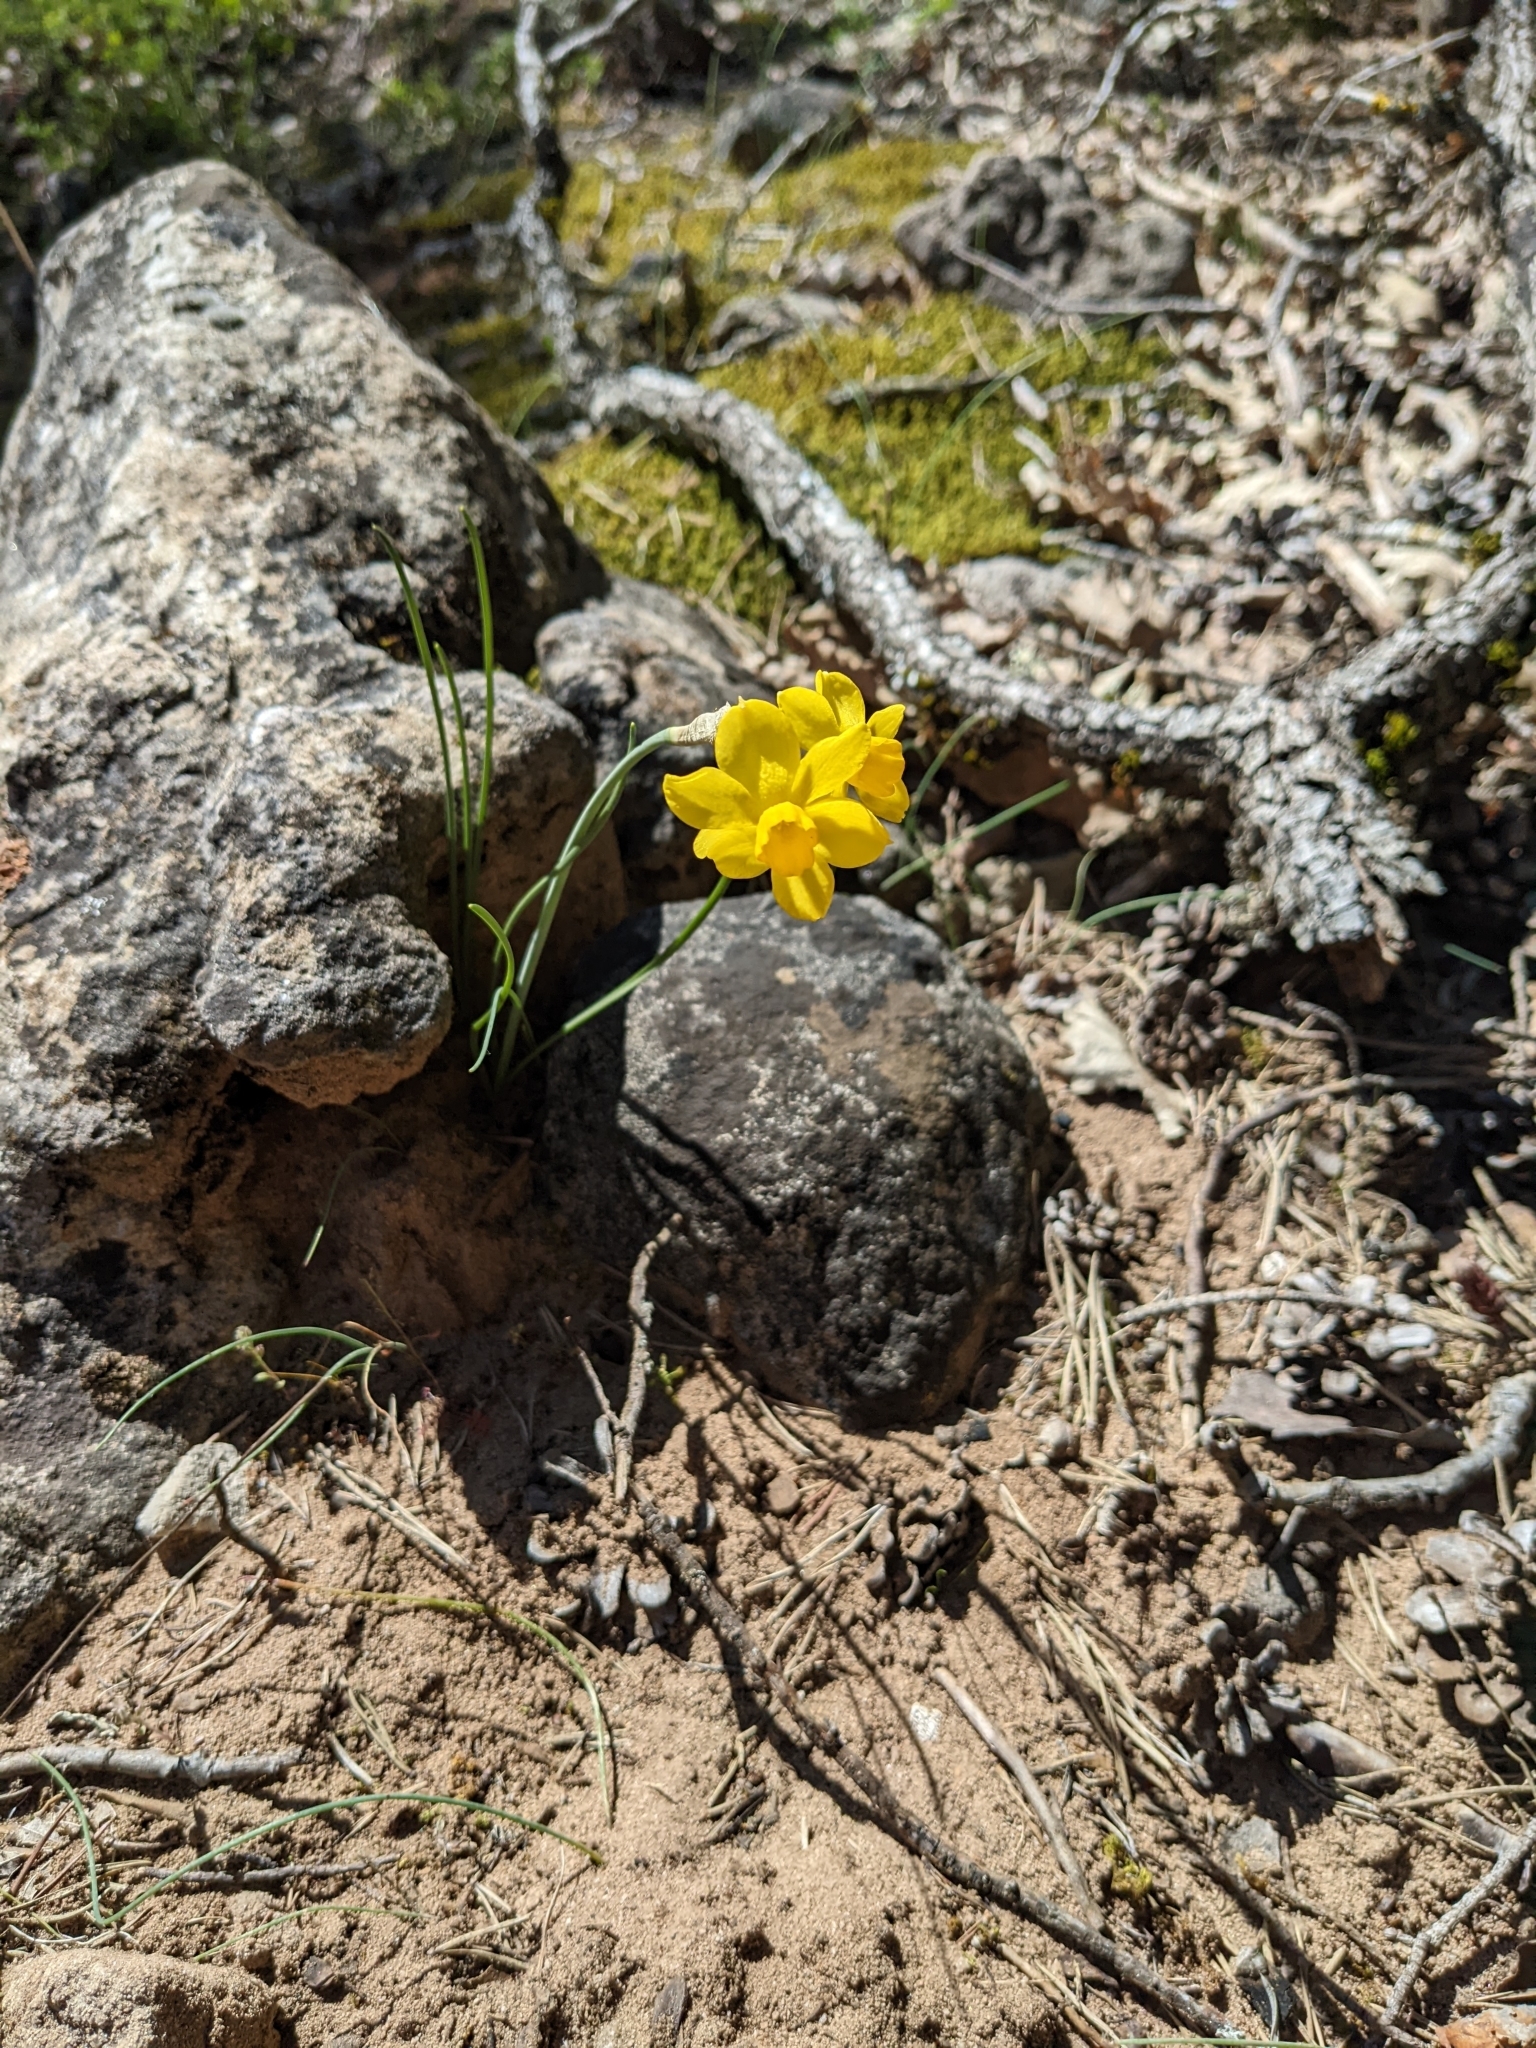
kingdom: Plantae
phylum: Tracheophyta
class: Liliopsida
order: Asparagales
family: Amaryllidaceae
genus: Narcissus
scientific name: Narcissus assoanus
